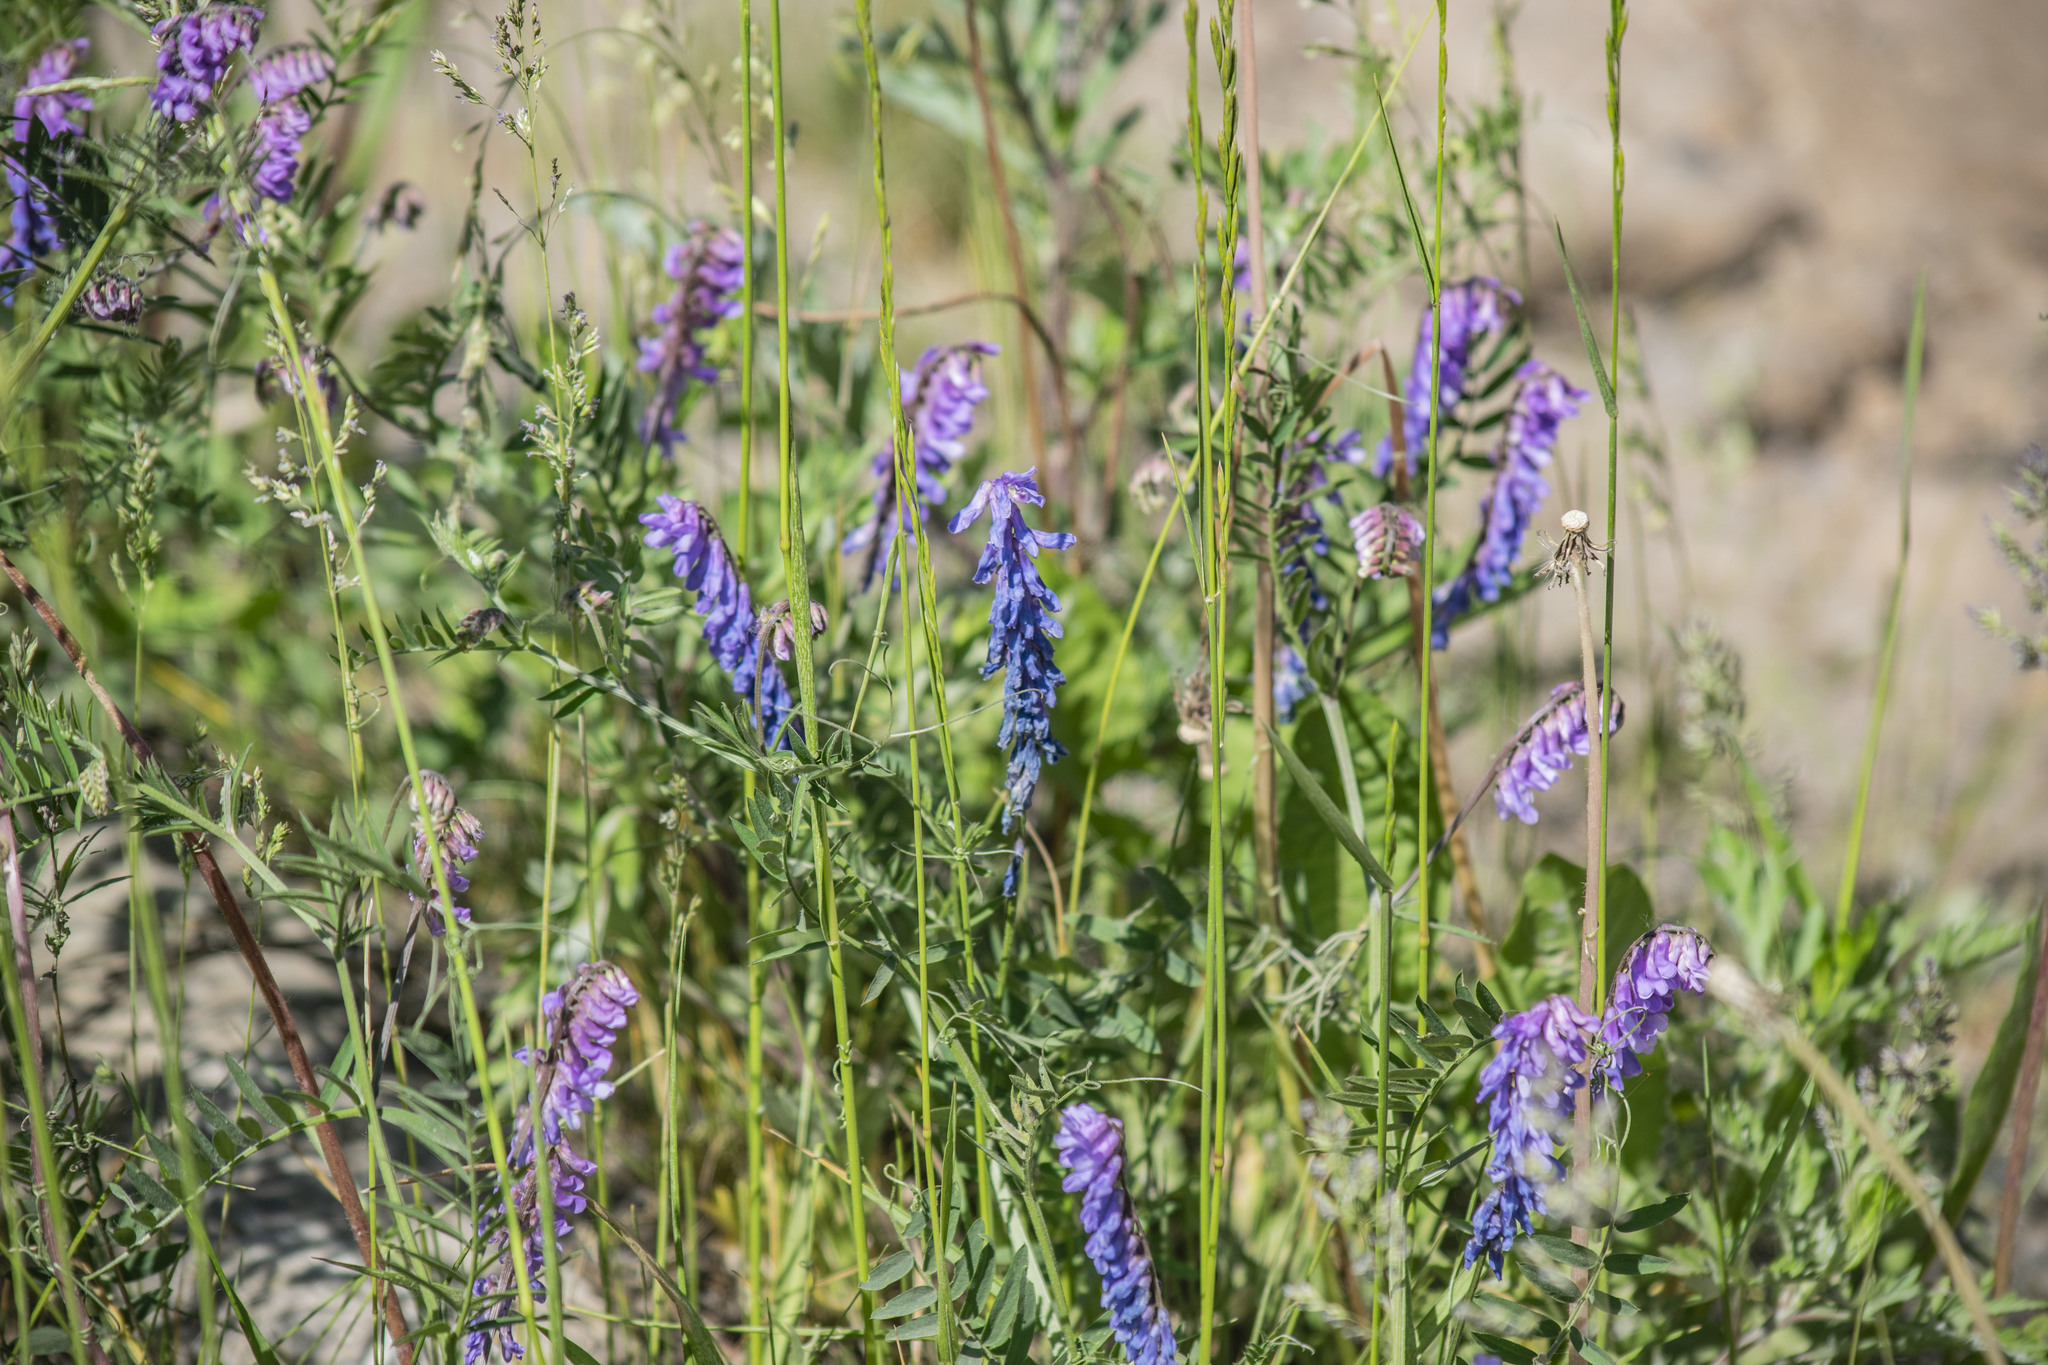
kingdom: Plantae
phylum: Tracheophyta
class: Magnoliopsida
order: Fabales
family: Fabaceae
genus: Vicia
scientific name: Vicia cracca
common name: Bird vetch
